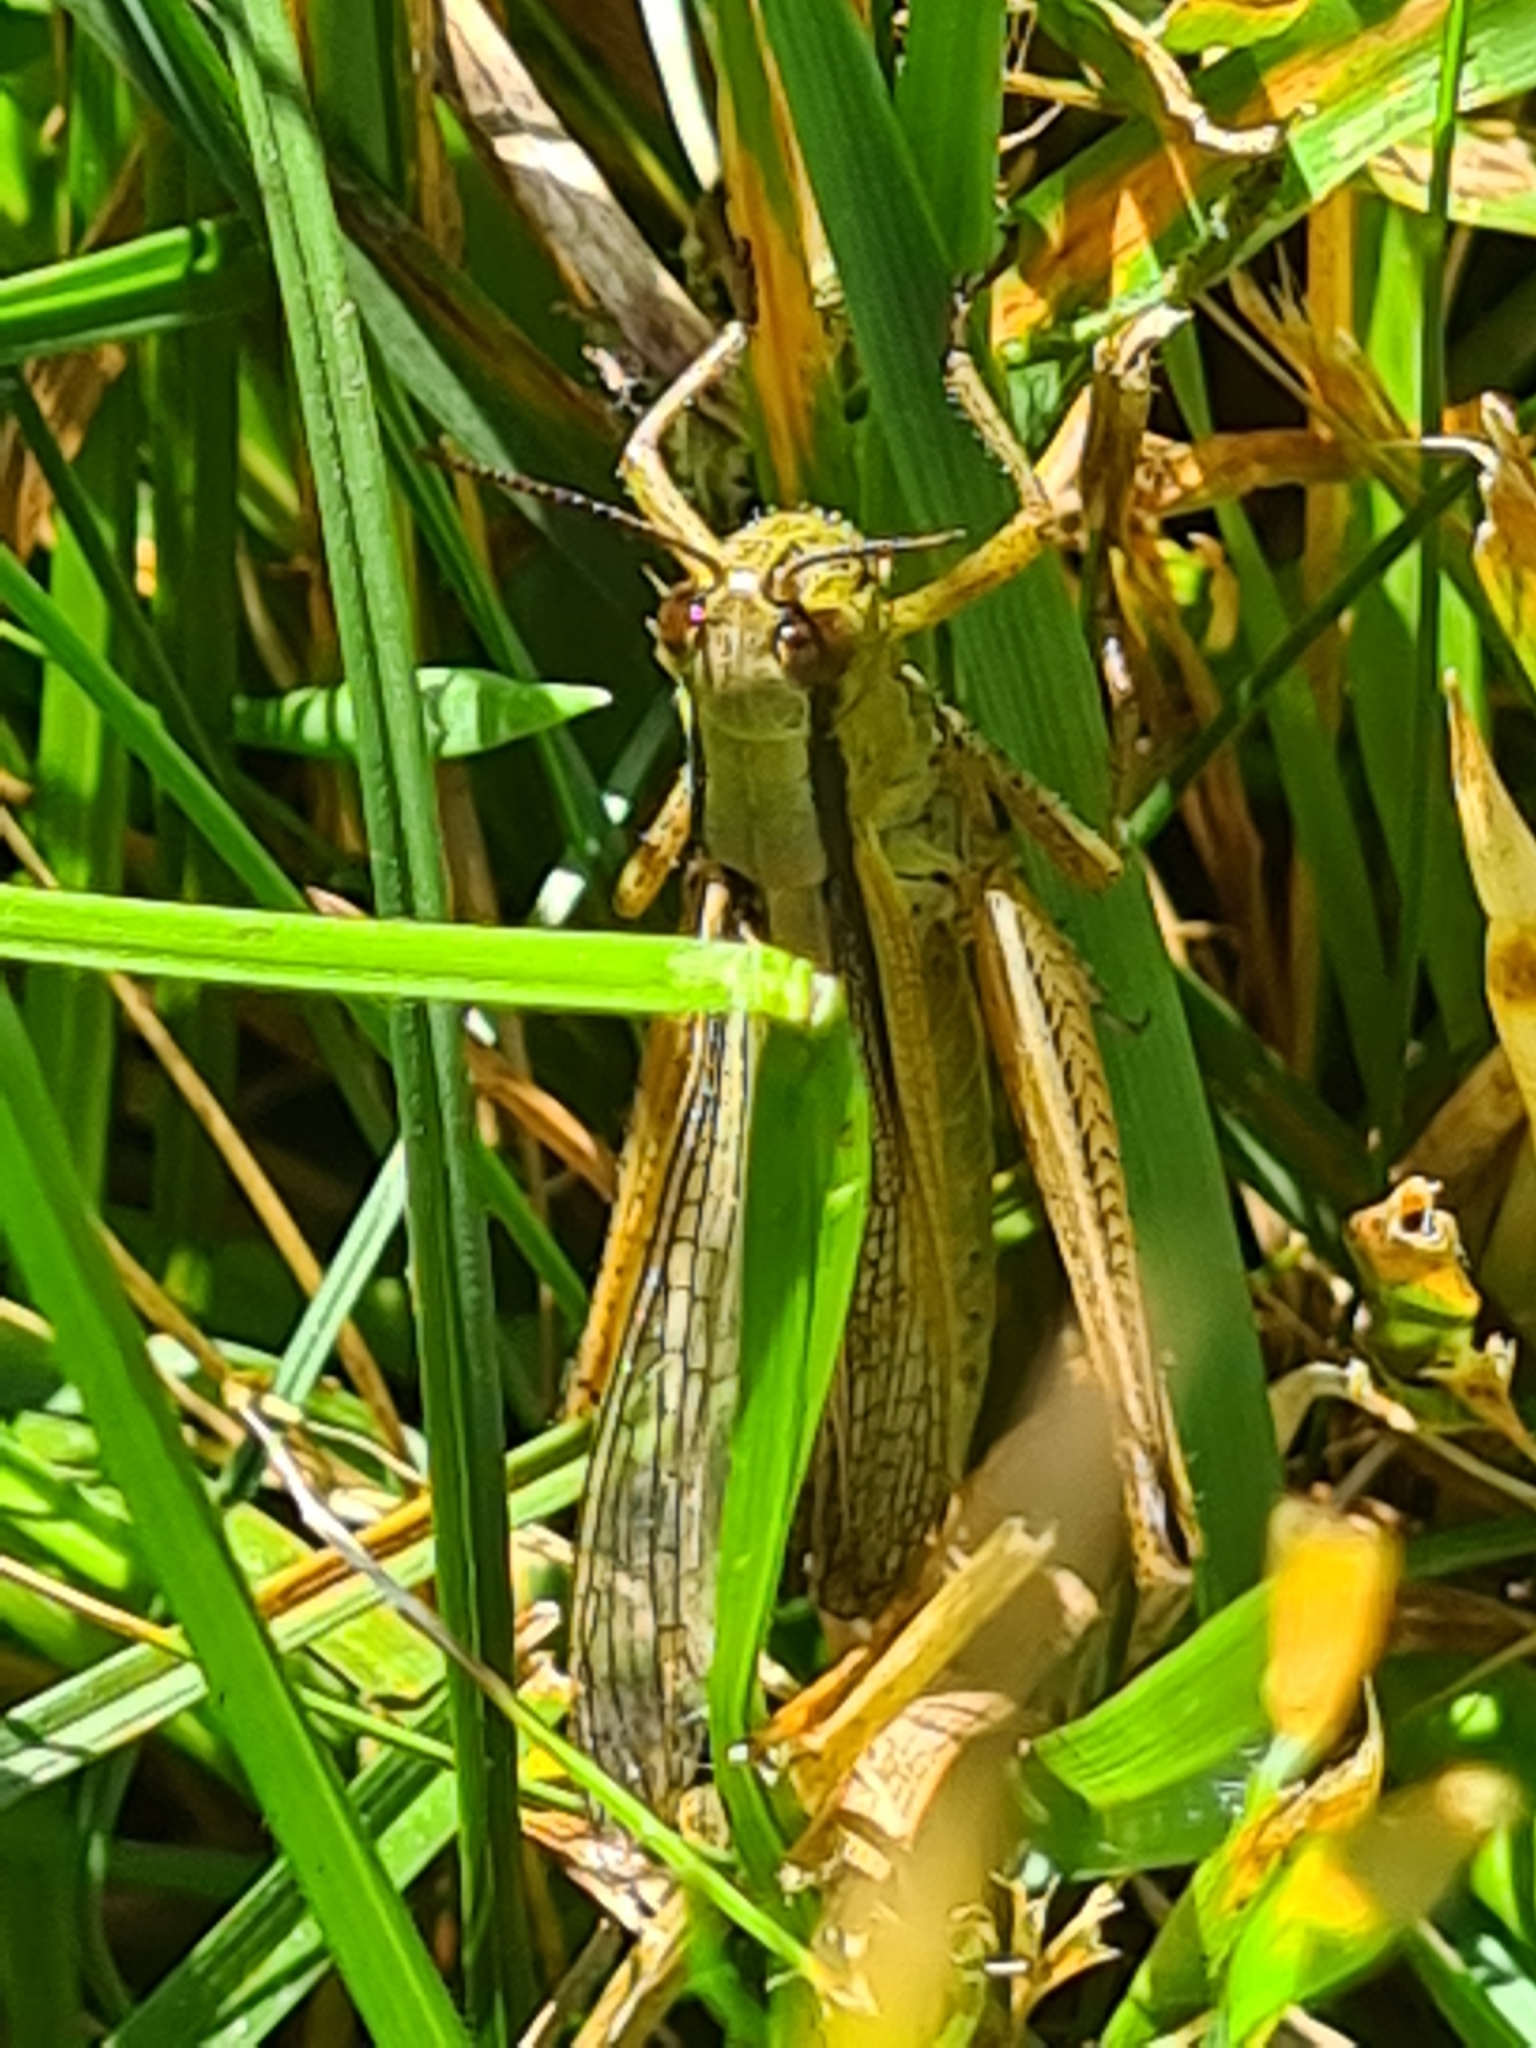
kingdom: Animalia
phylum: Arthropoda
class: Insecta
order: Orthoptera
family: Acrididae
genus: Mecostethus
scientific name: Mecostethus parapleurus
